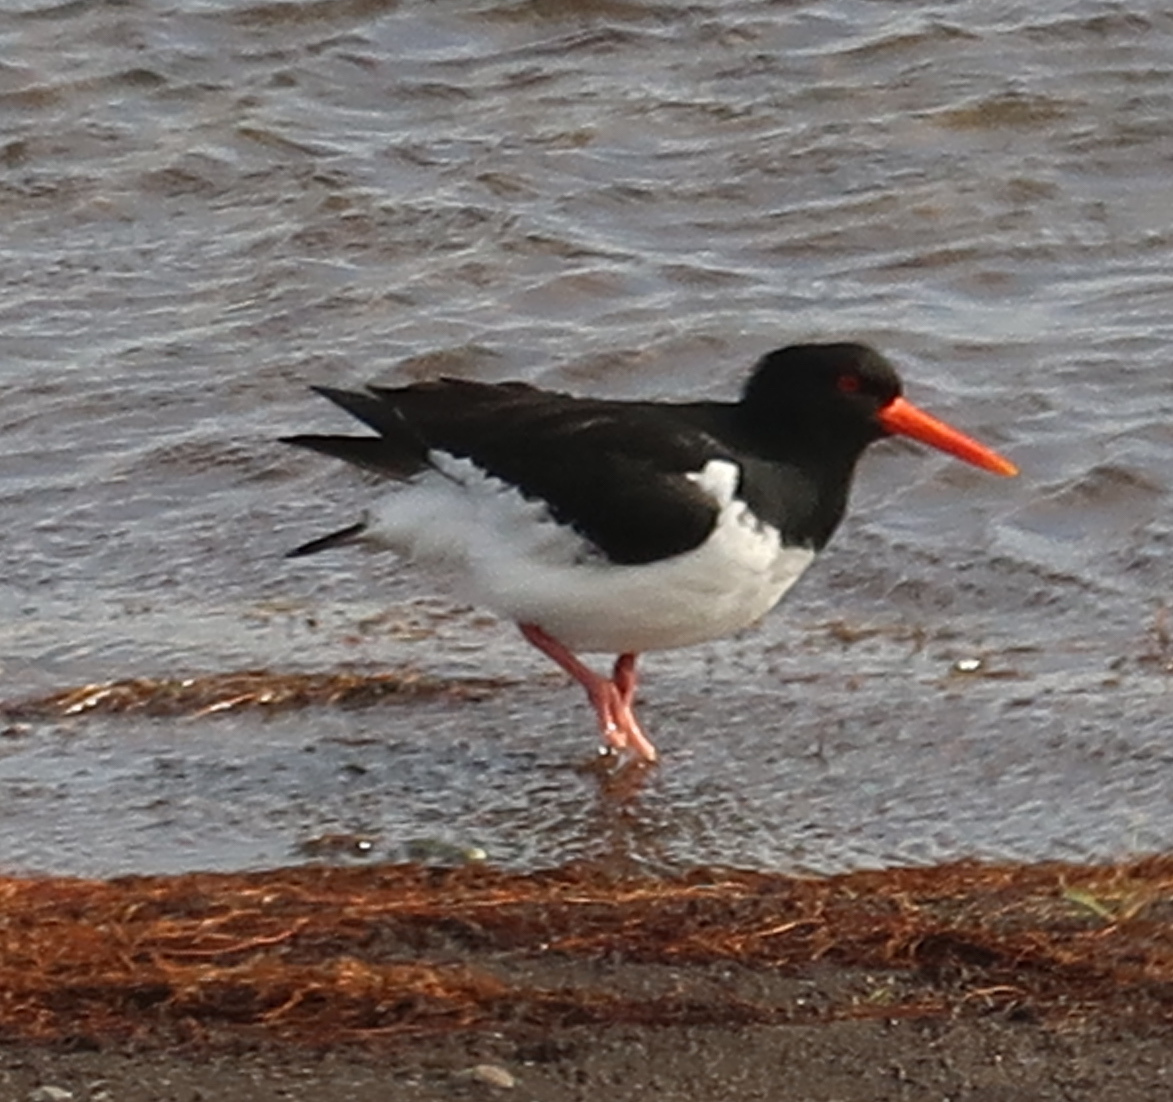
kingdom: Animalia
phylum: Chordata
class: Aves
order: Charadriiformes
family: Haematopodidae
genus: Haematopus
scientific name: Haematopus ostralegus
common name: Eurasian oystercatcher
